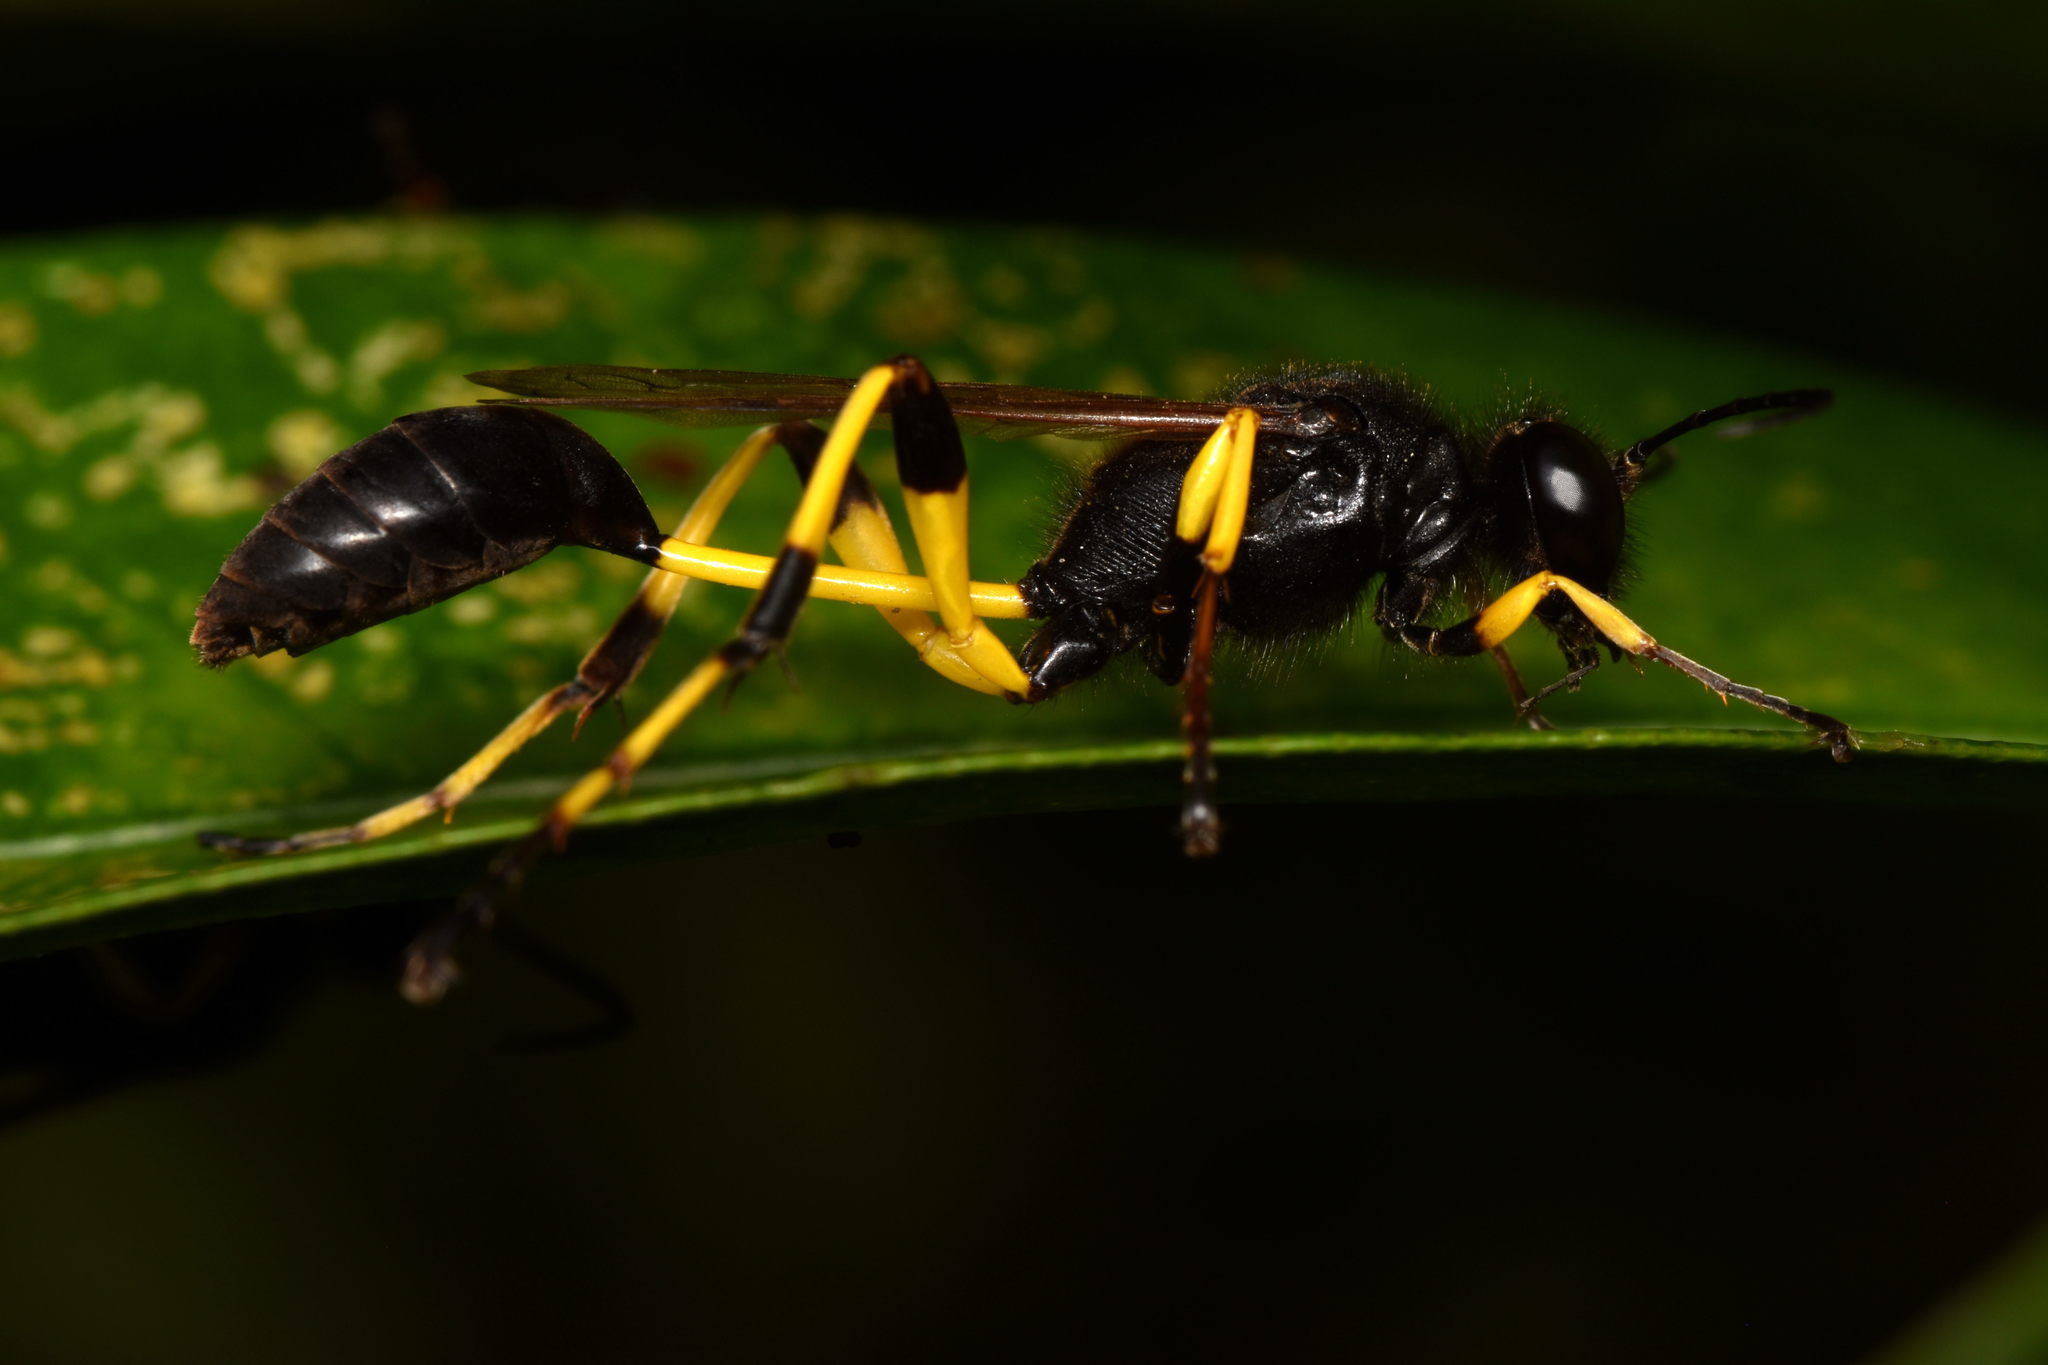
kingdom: Animalia
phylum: Arthropoda
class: Insecta
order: Hymenoptera
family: Sphecidae
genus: Sceliphron
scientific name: Sceliphron spirifex
